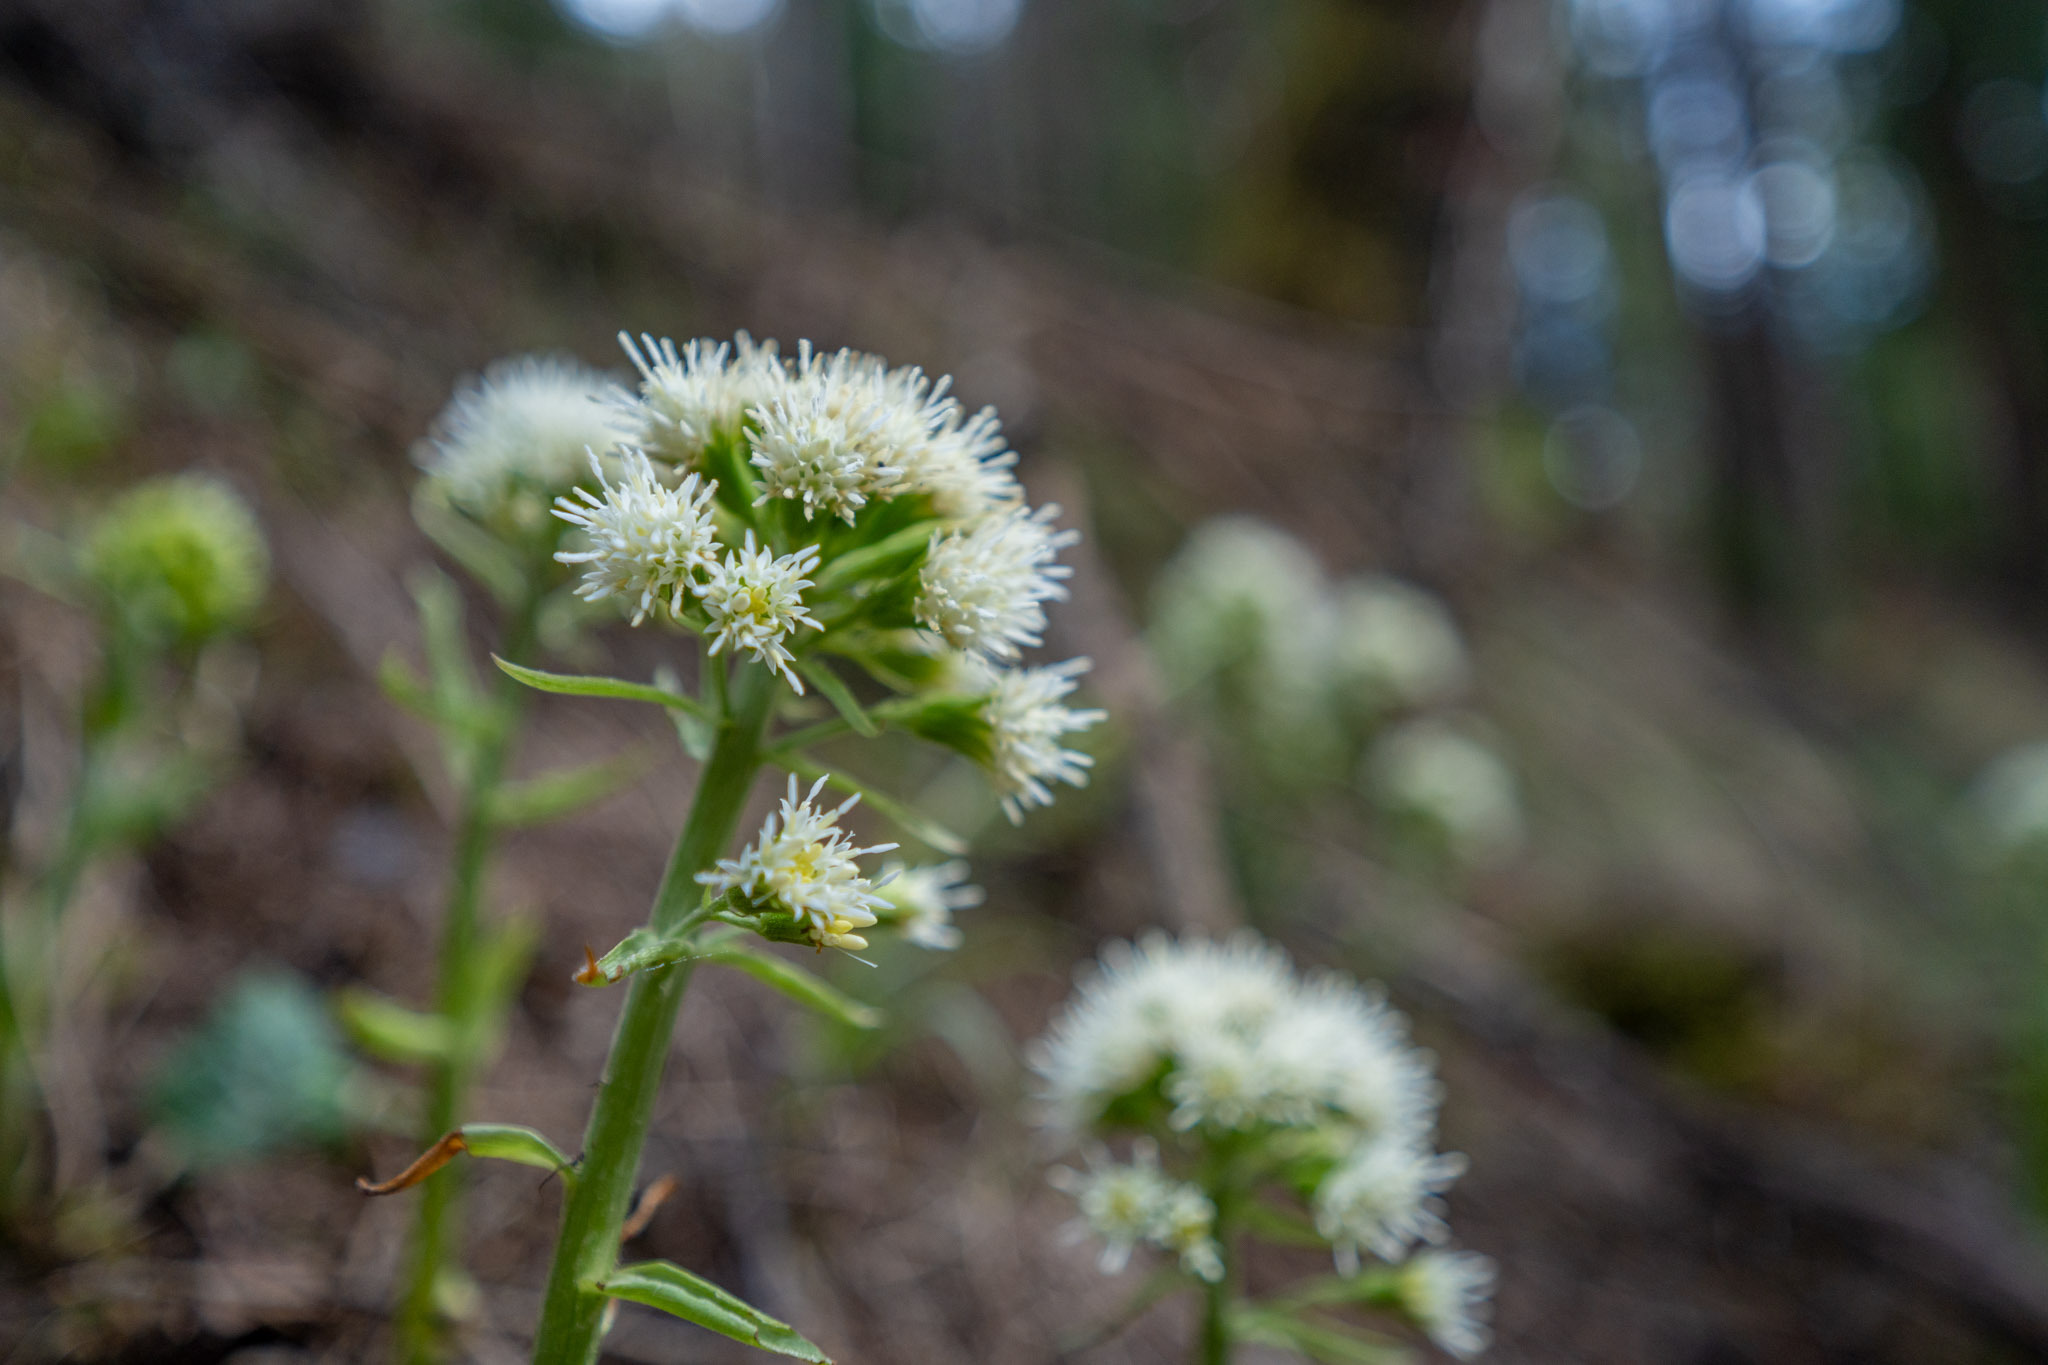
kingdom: Plantae
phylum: Tracheophyta
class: Magnoliopsida
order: Asterales
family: Asteraceae
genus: Petasites
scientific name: Petasites albus
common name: White butterbur
